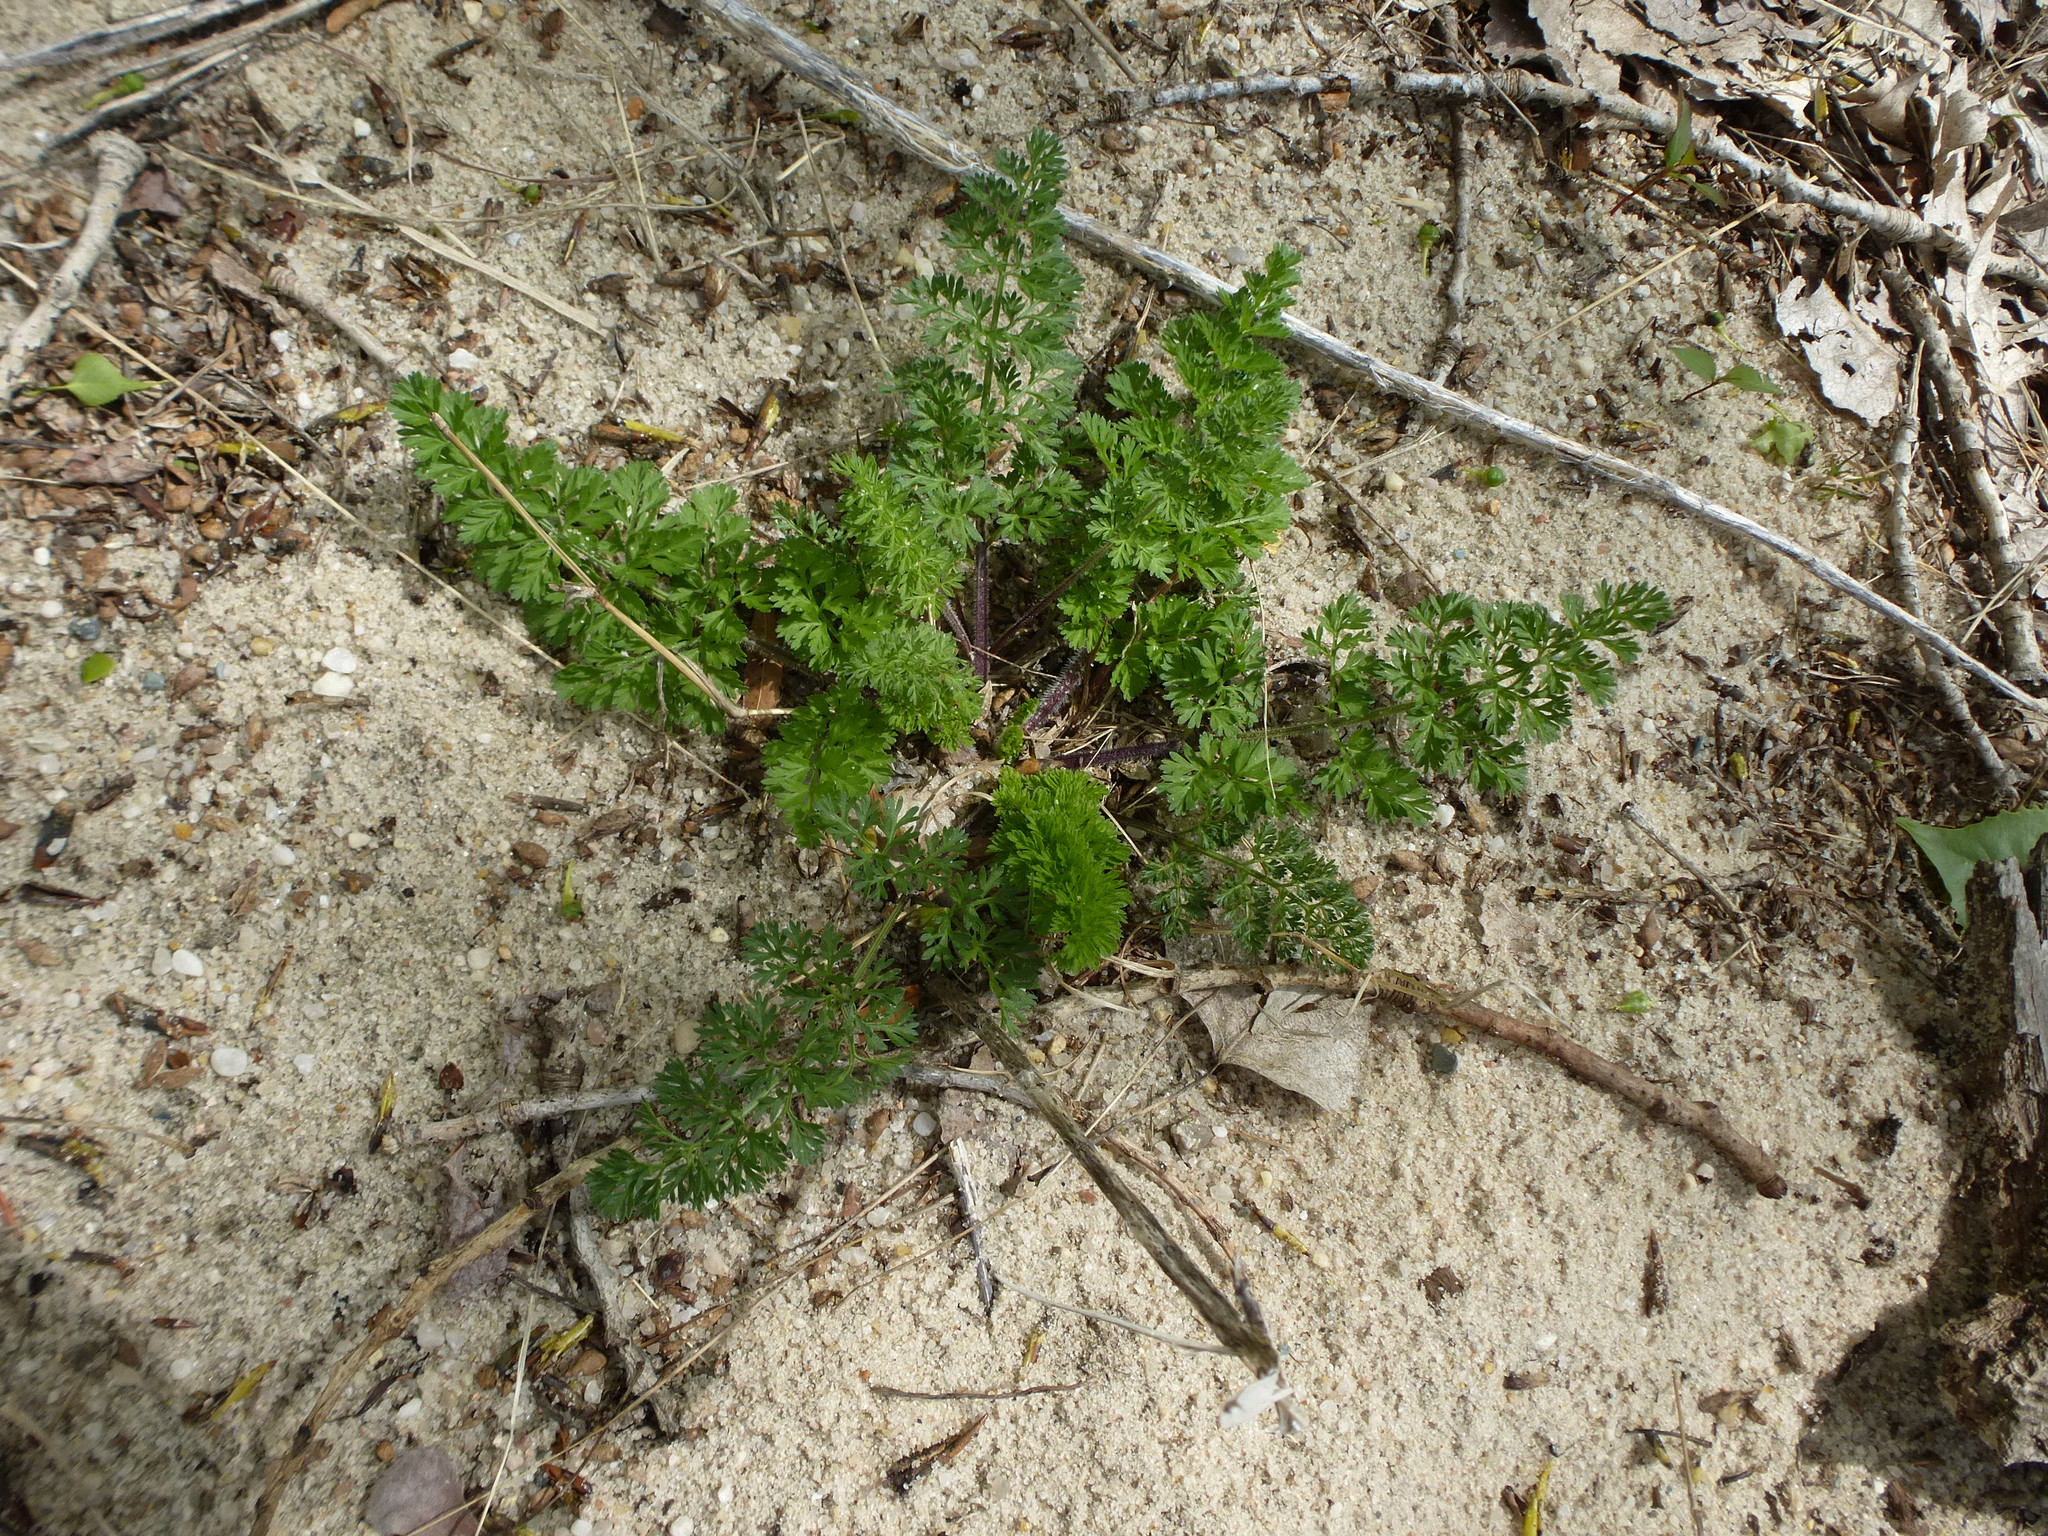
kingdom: Plantae
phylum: Tracheophyta
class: Magnoliopsida
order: Apiales
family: Apiaceae
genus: Daucus
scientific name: Daucus carota
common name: Wild carrot
